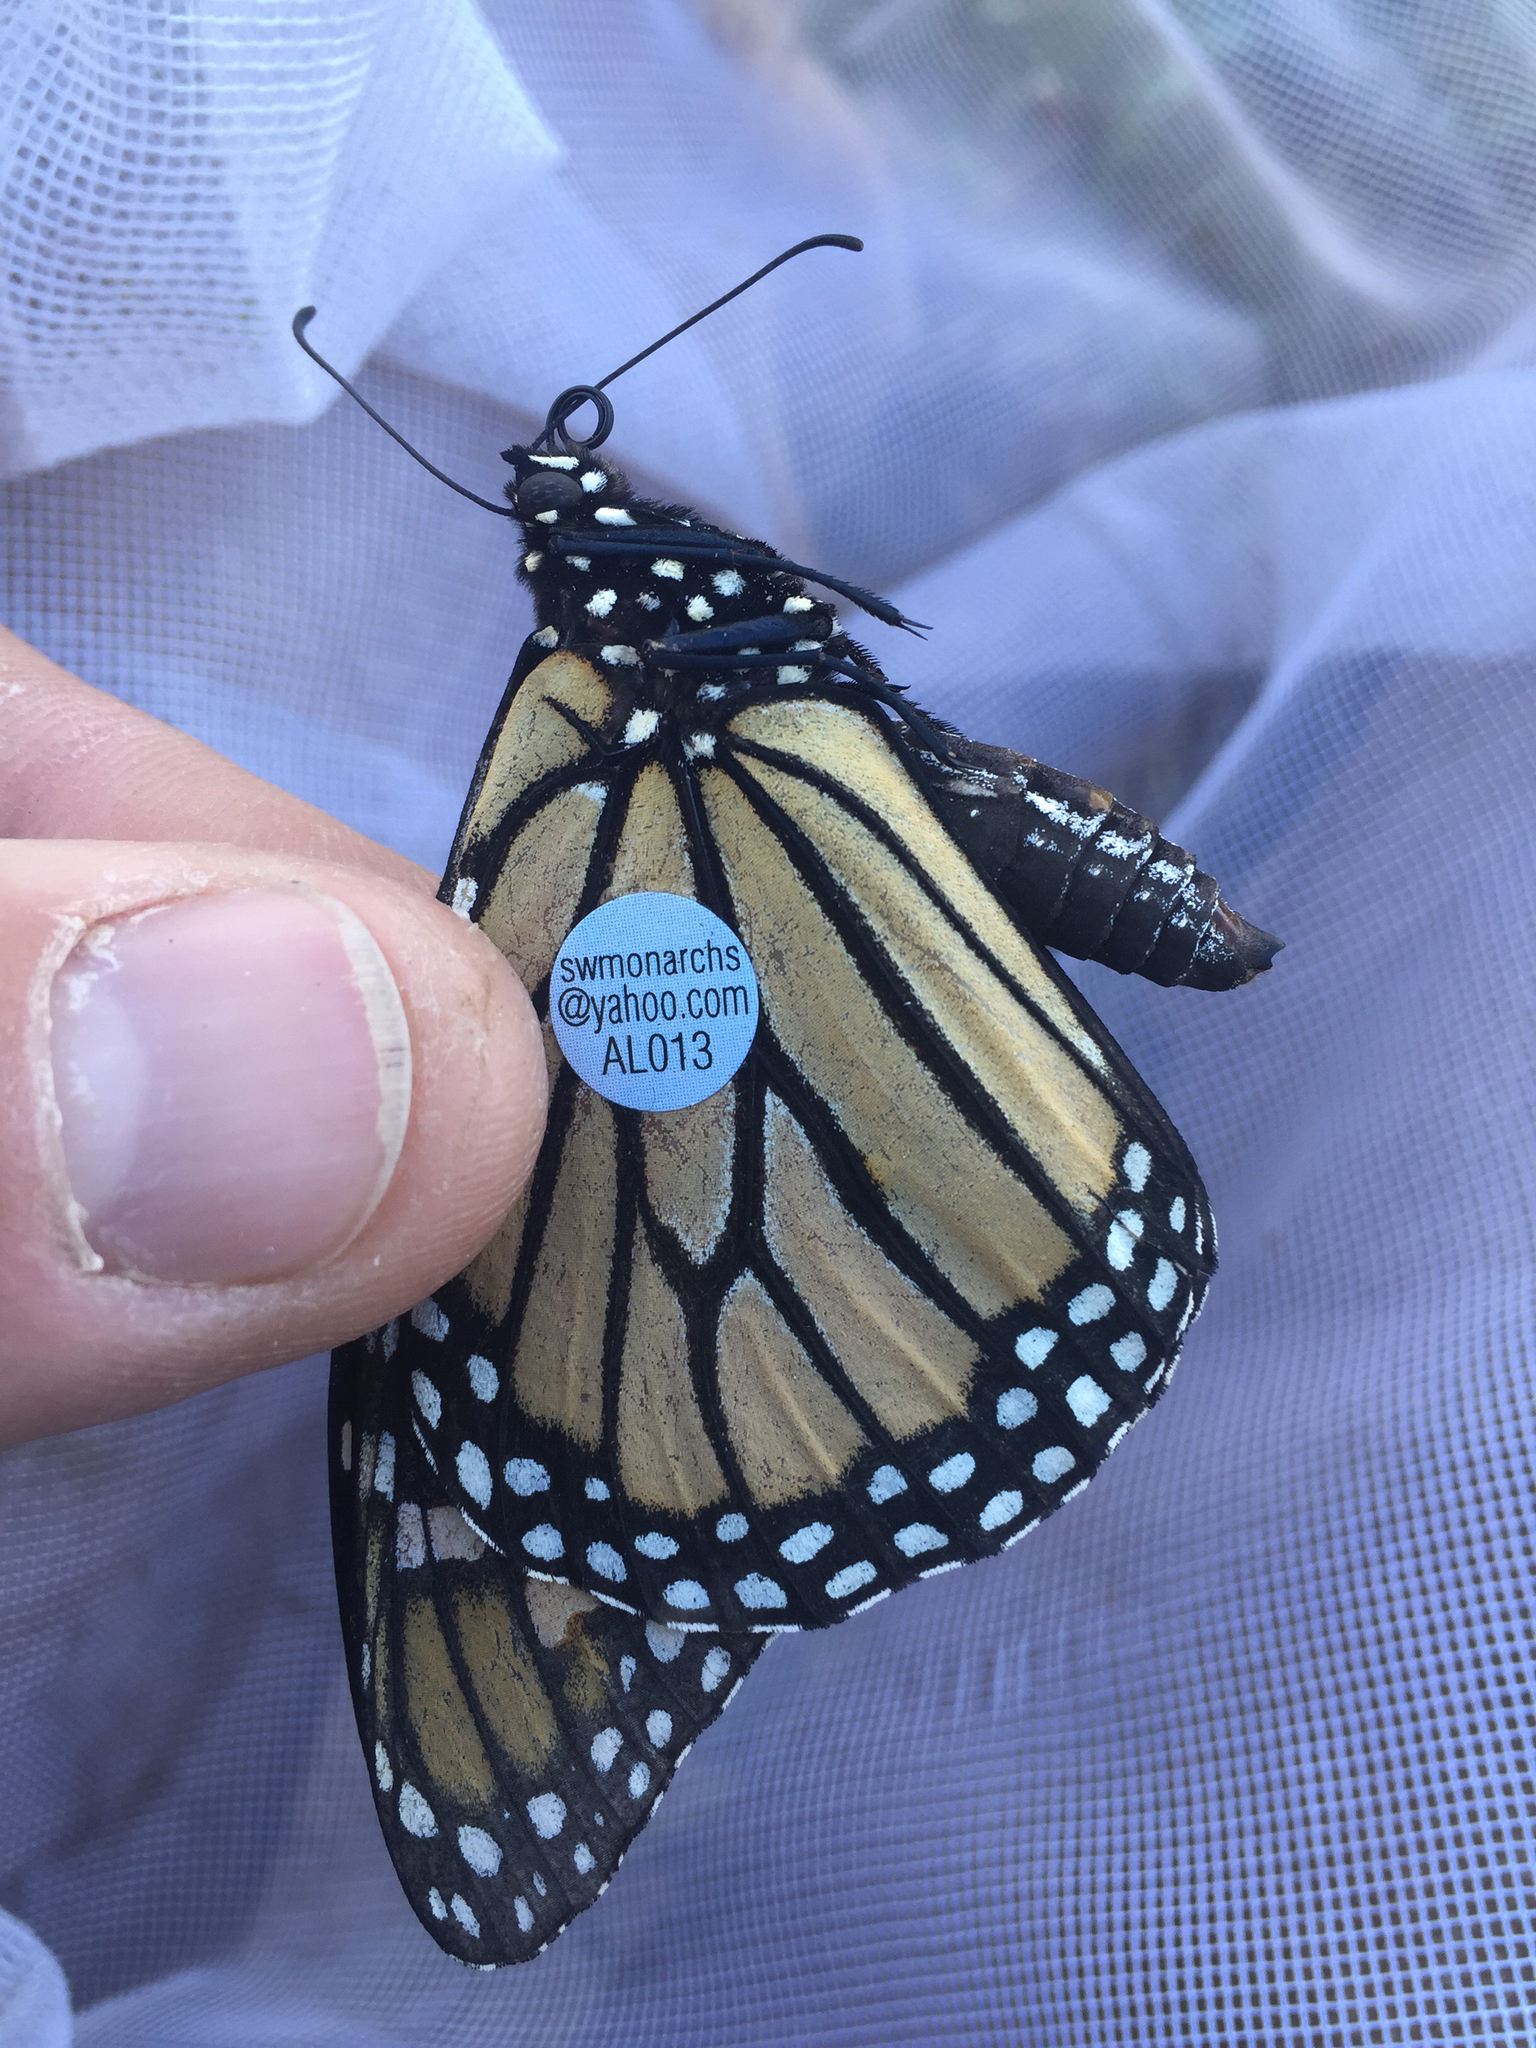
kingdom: Animalia
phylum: Arthropoda
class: Insecta
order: Lepidoptera
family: Nymphalidae
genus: Danaus
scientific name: Danaus plexippus
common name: Monarch
